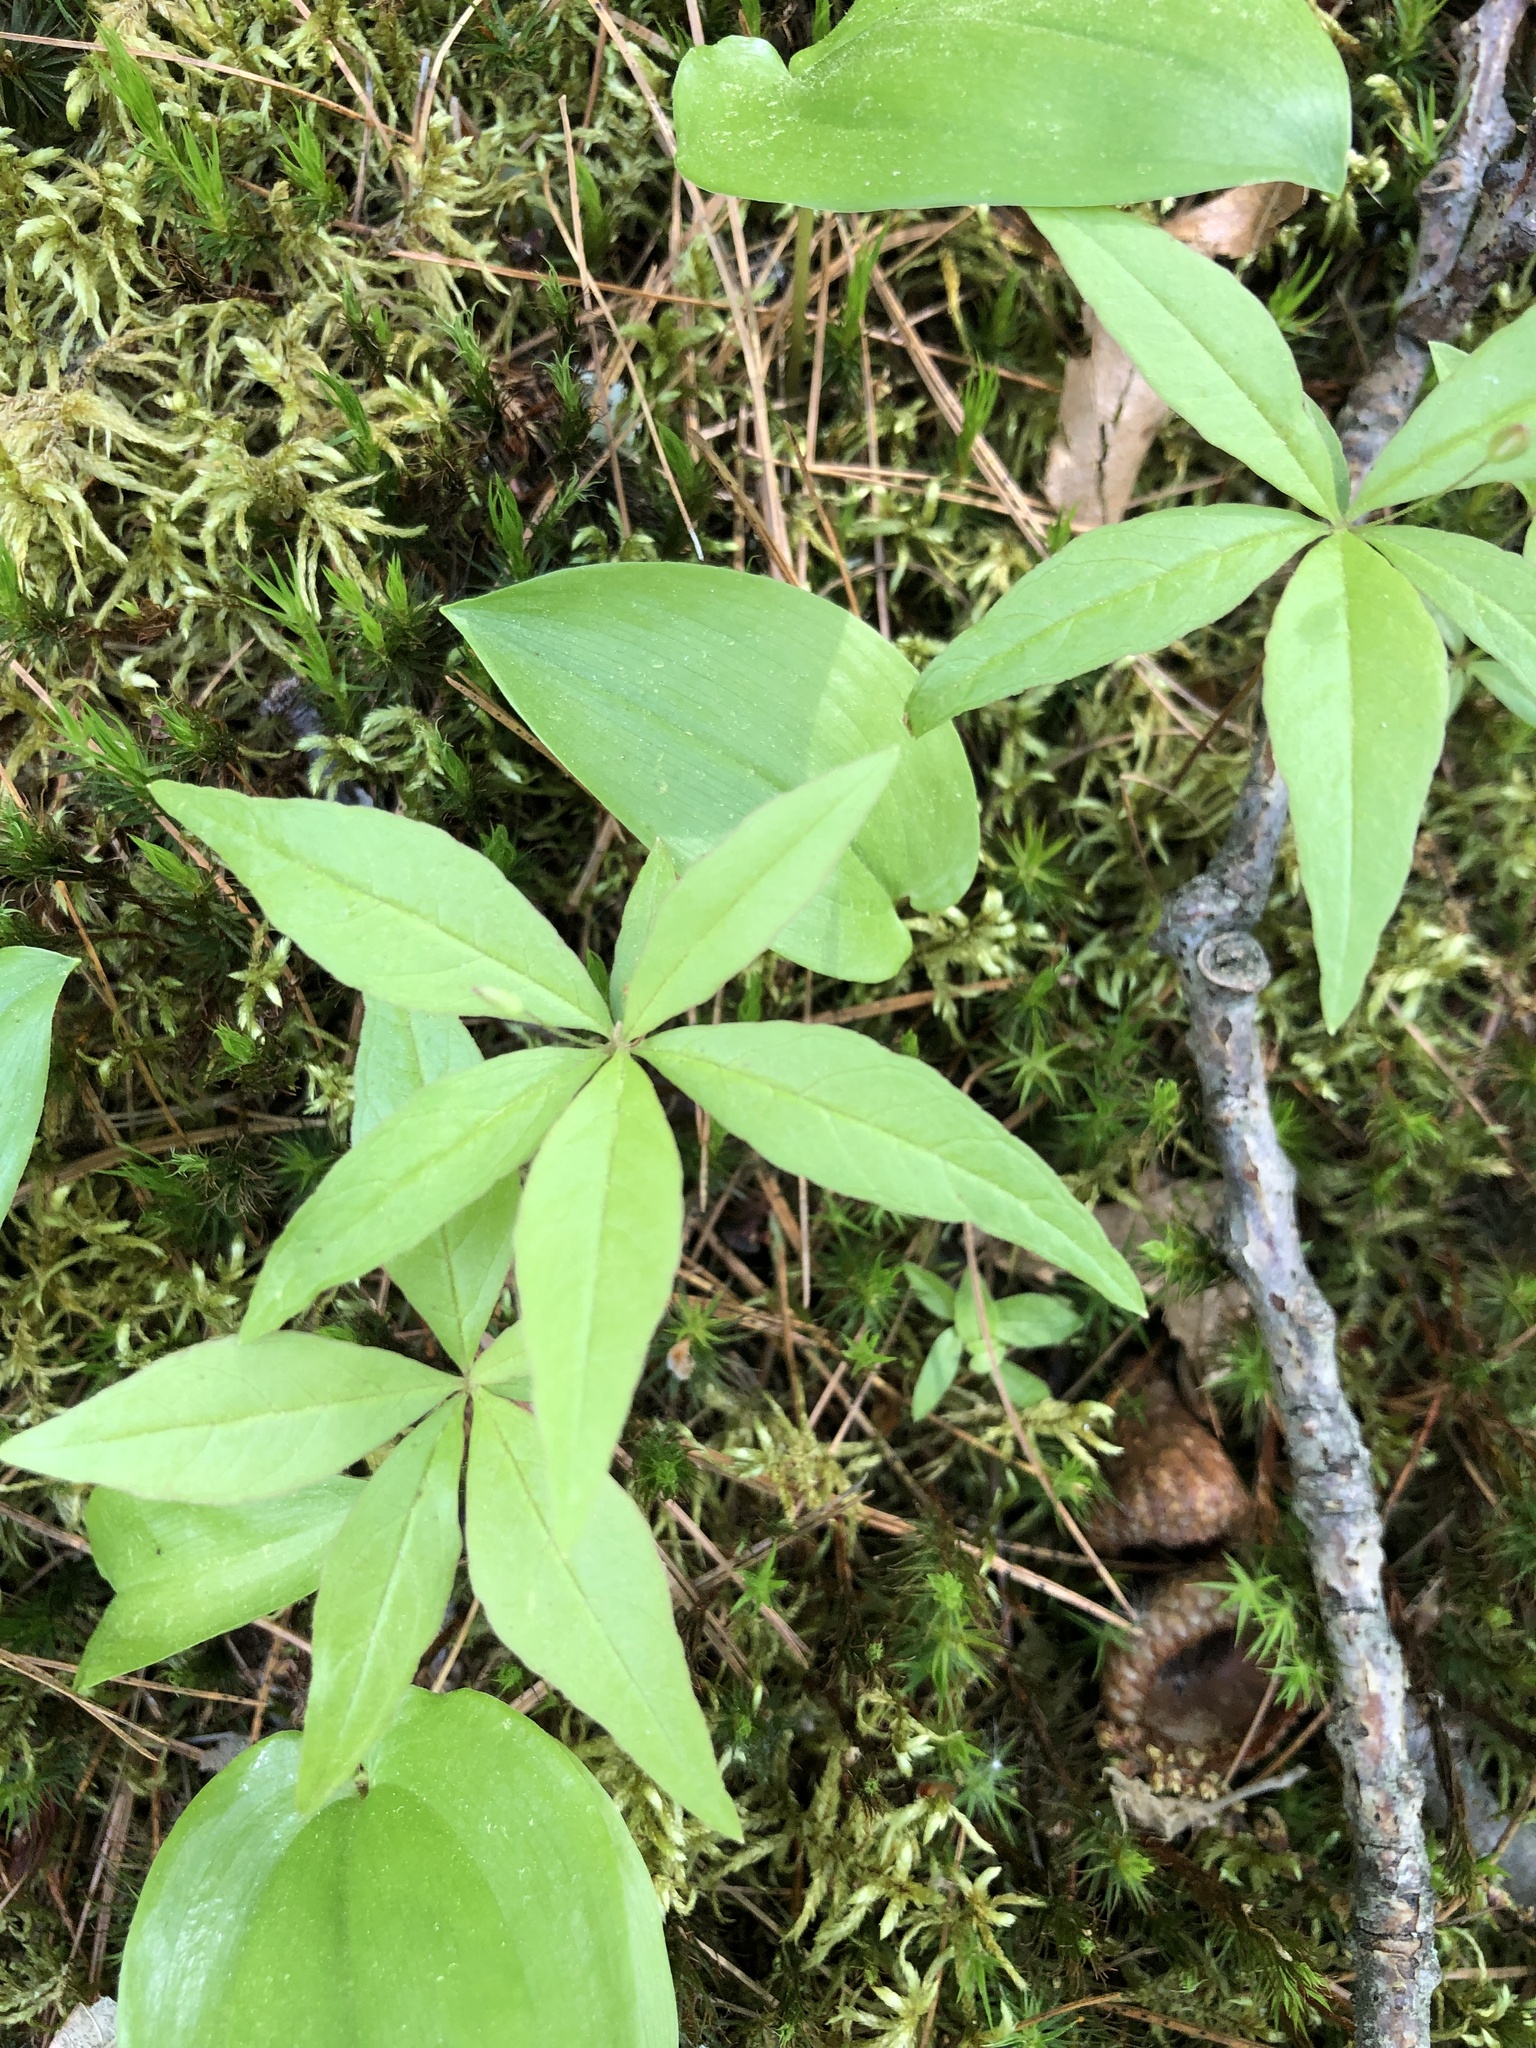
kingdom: Plantae
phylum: Tracheophyta
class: Magnoliopsida
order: Ericales
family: Primulaceae
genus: Lysimachia
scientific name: Lysimachia borealis
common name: American starflower
